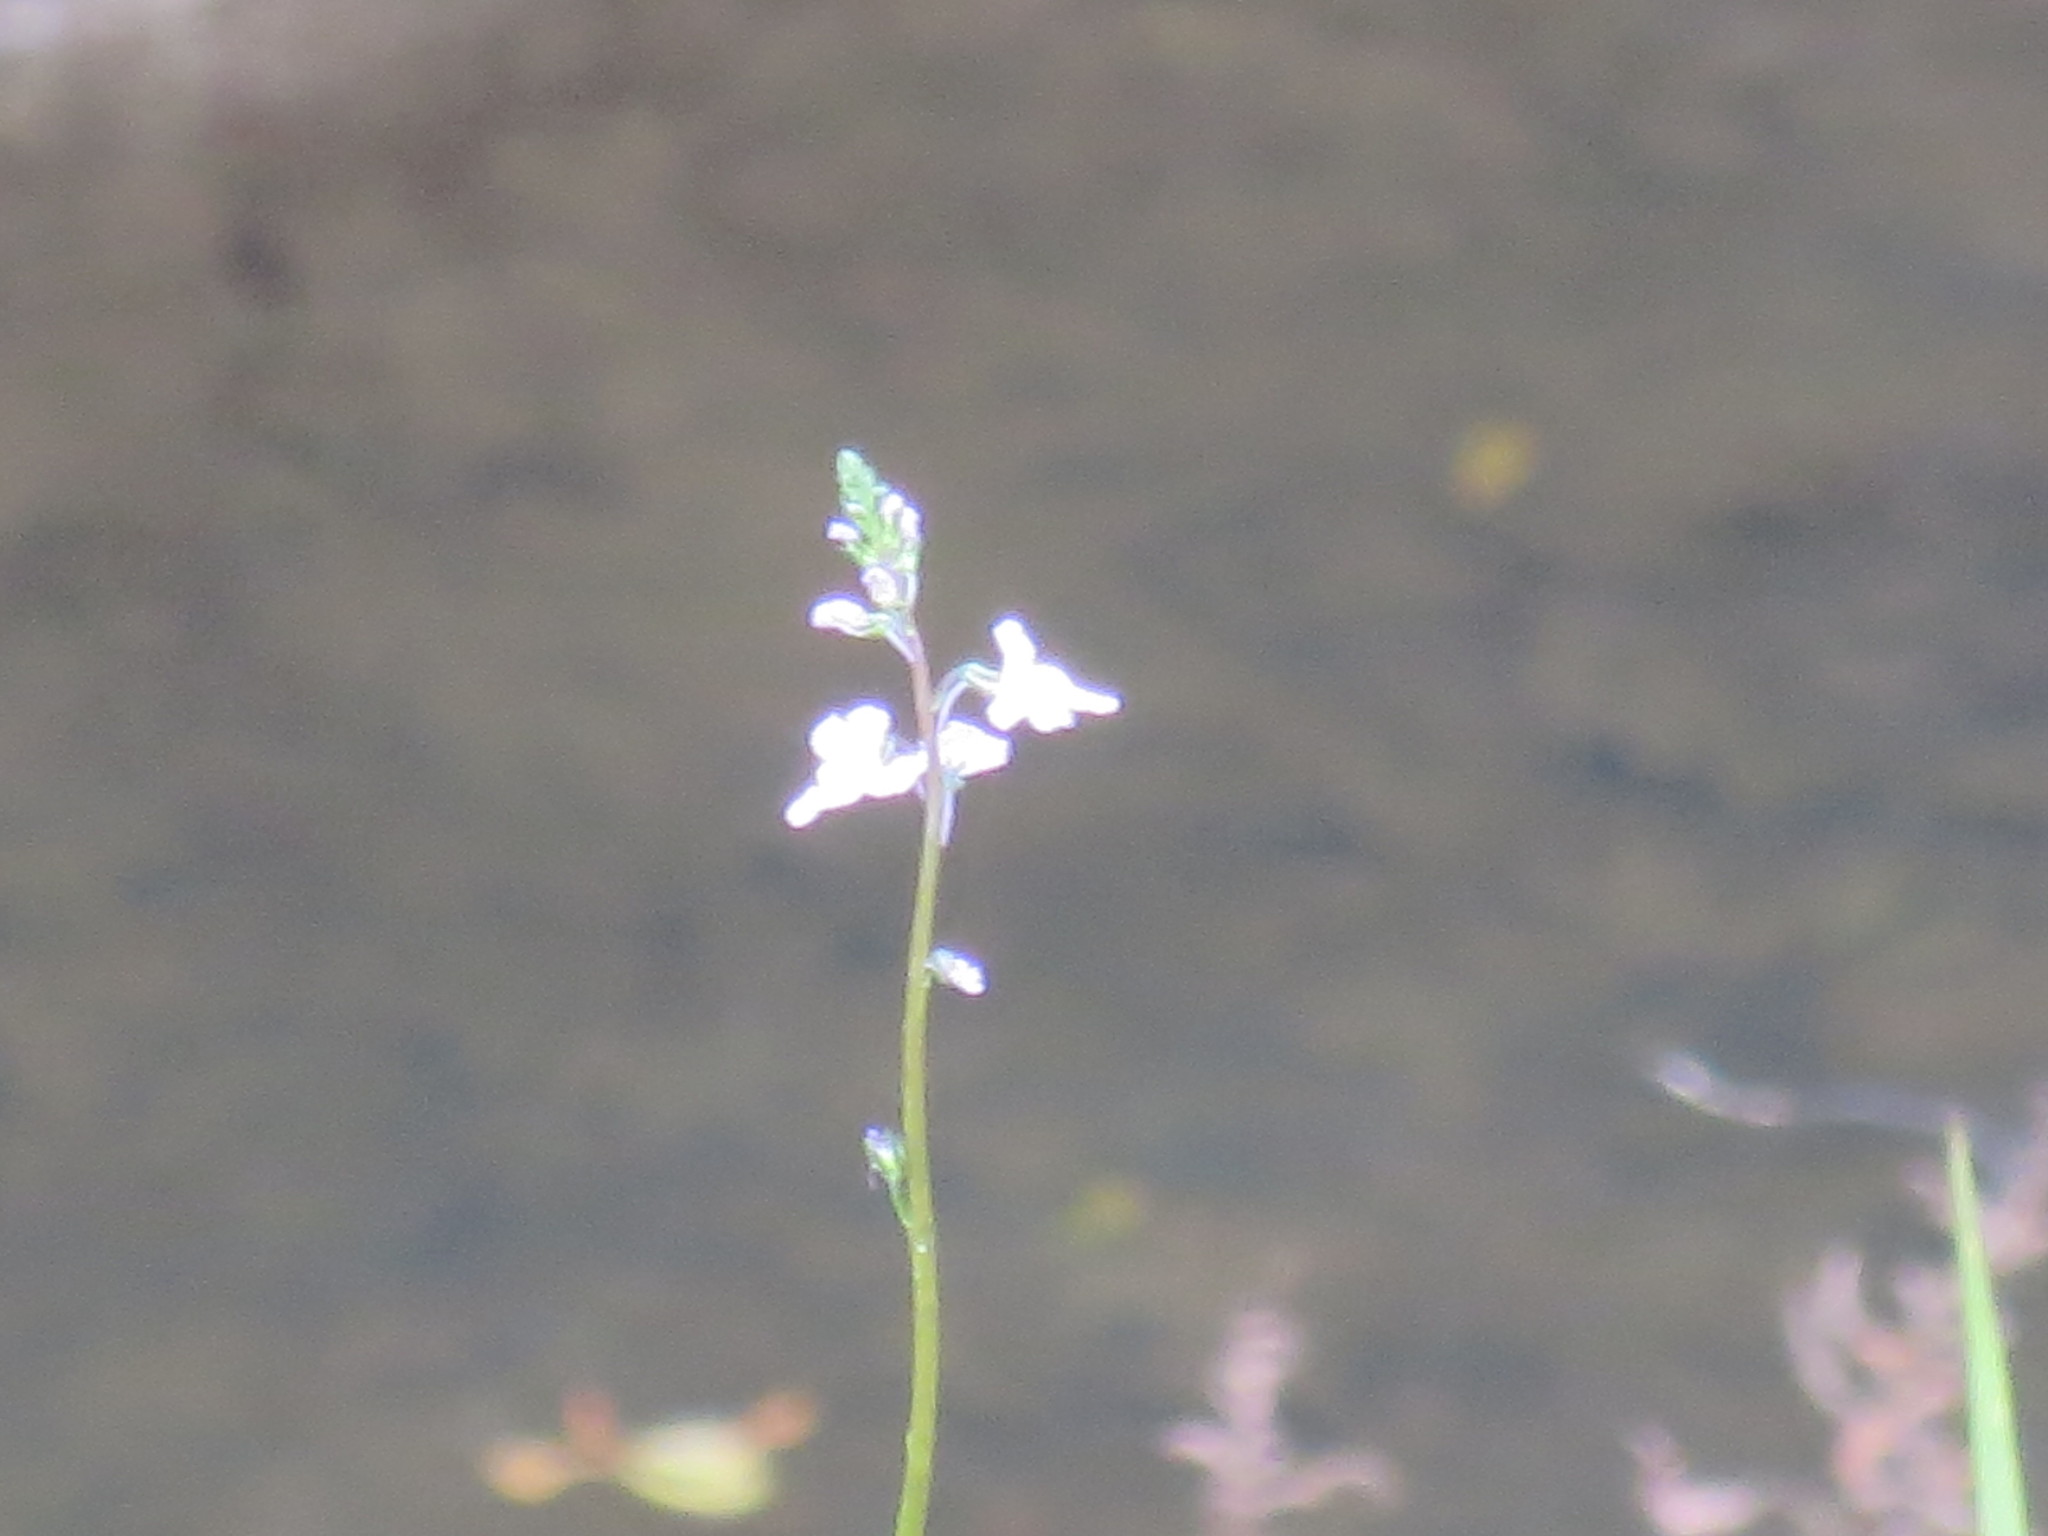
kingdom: Plantae
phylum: Tracheophyta
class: Magnoliopsida
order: Lamiales
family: Plantaginaceae
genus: Nuttallanthus
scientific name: Nuttallanthus canadensis
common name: Blue toadflax
